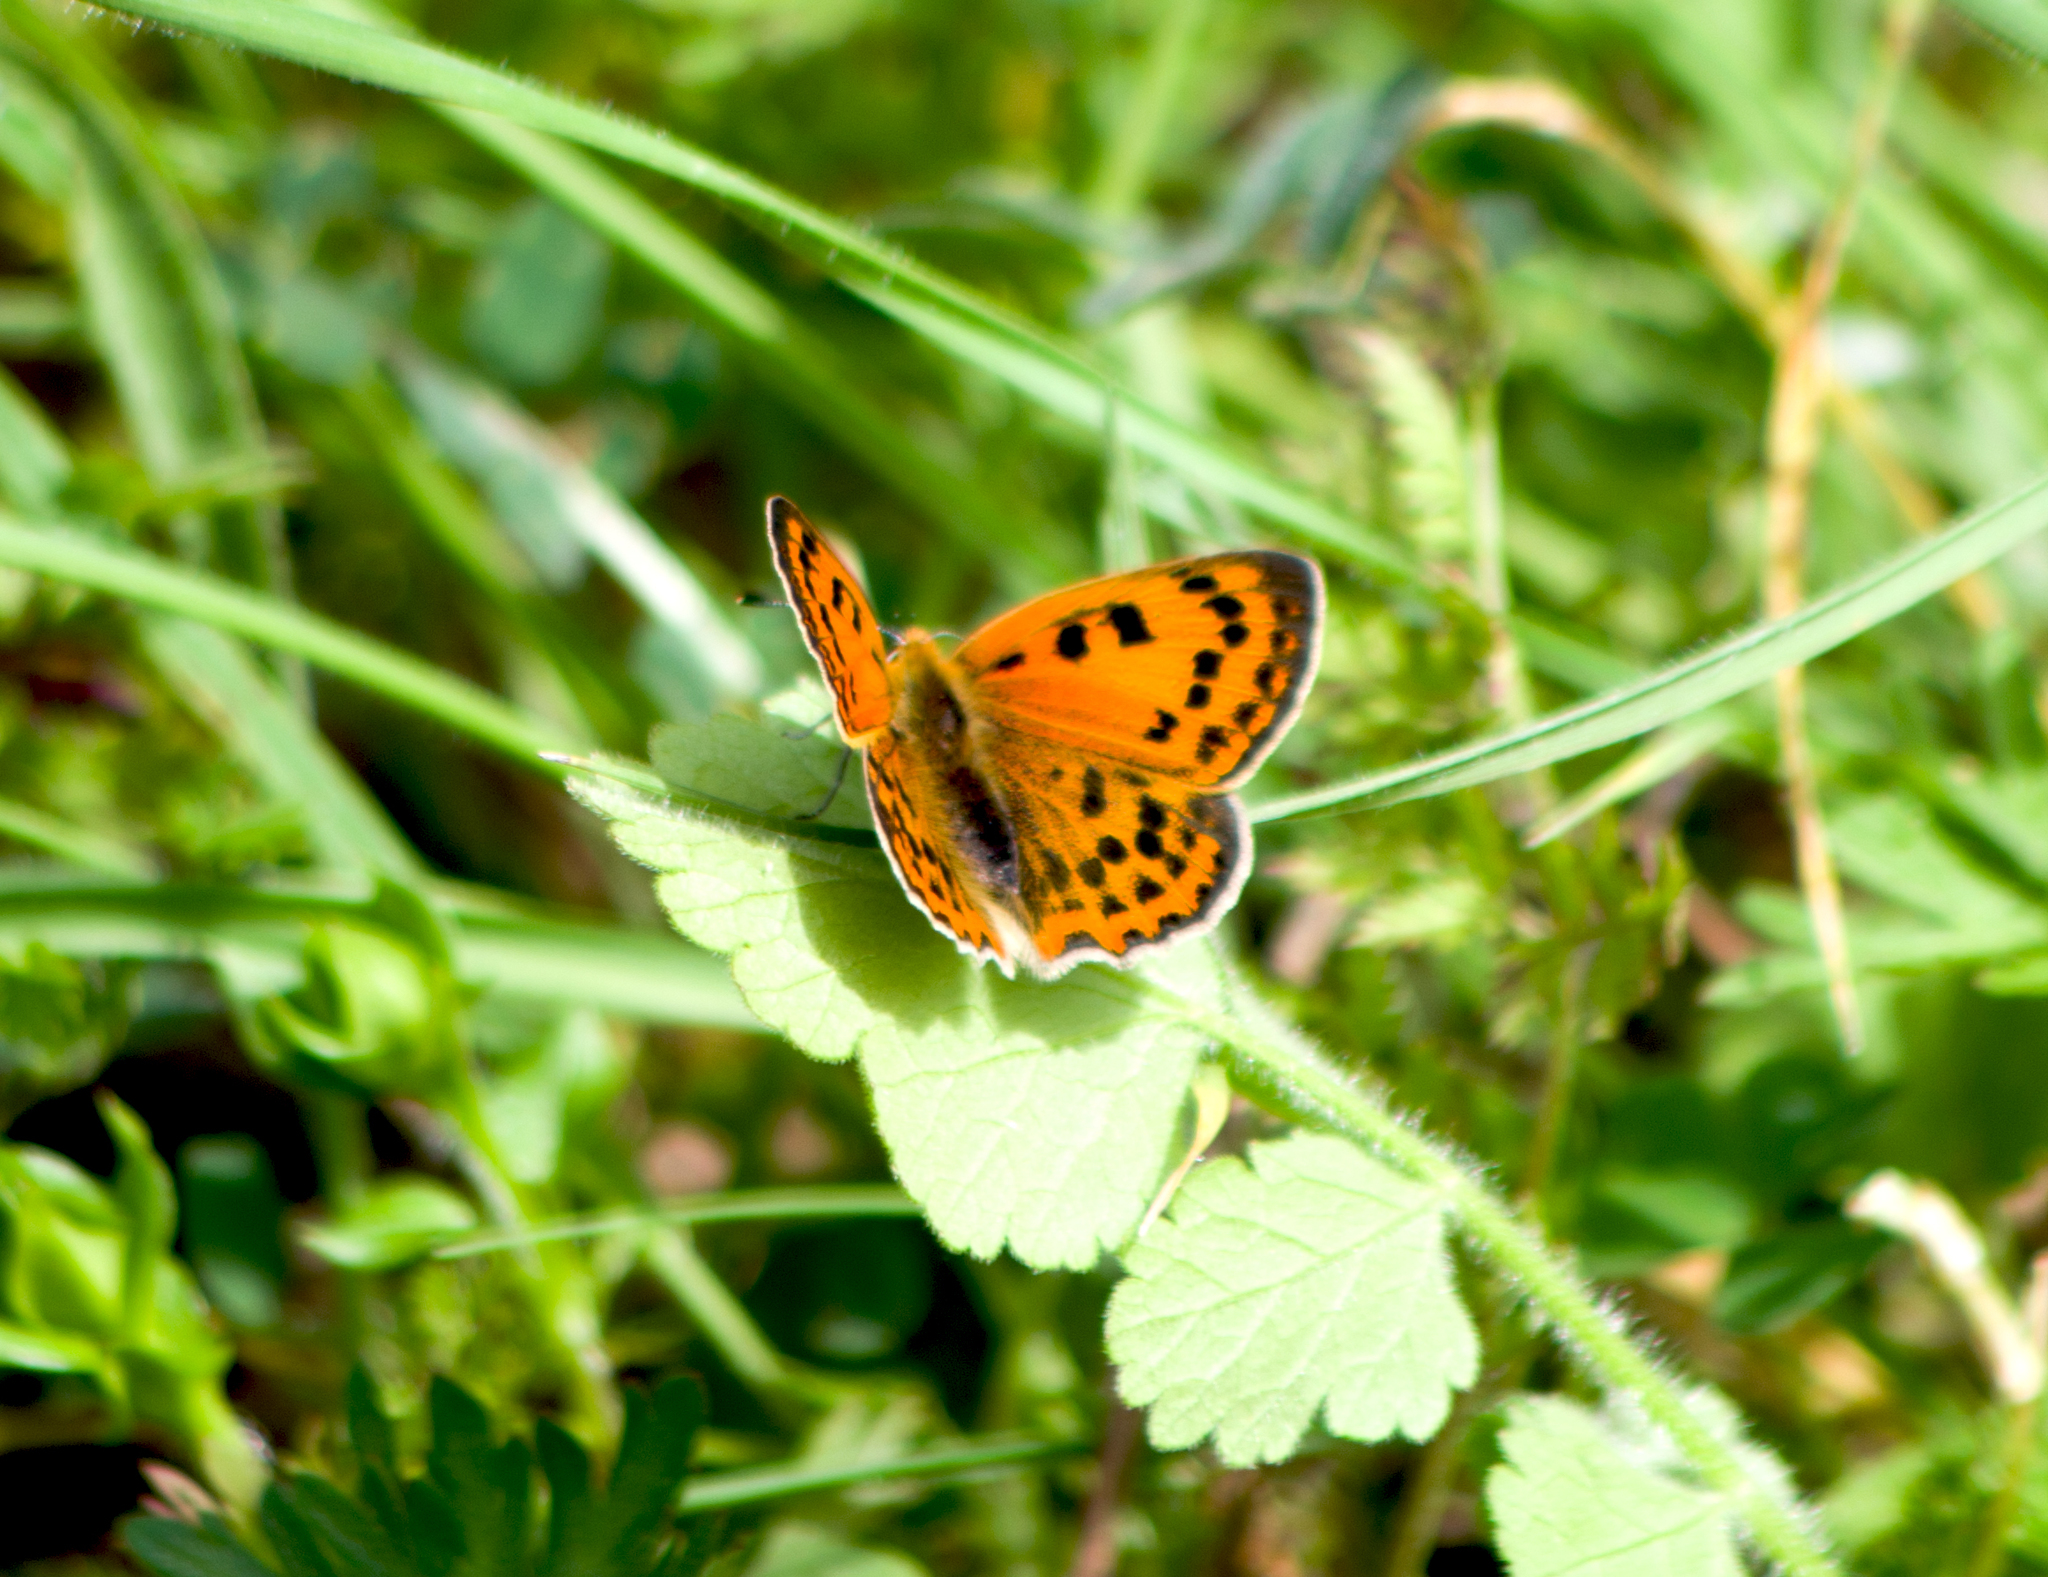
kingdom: Animalia
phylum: Arthropoda
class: Insecta
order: Lepidoptera
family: Lycaenidae
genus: Polyommatus
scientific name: Polyommatus ottomanus
